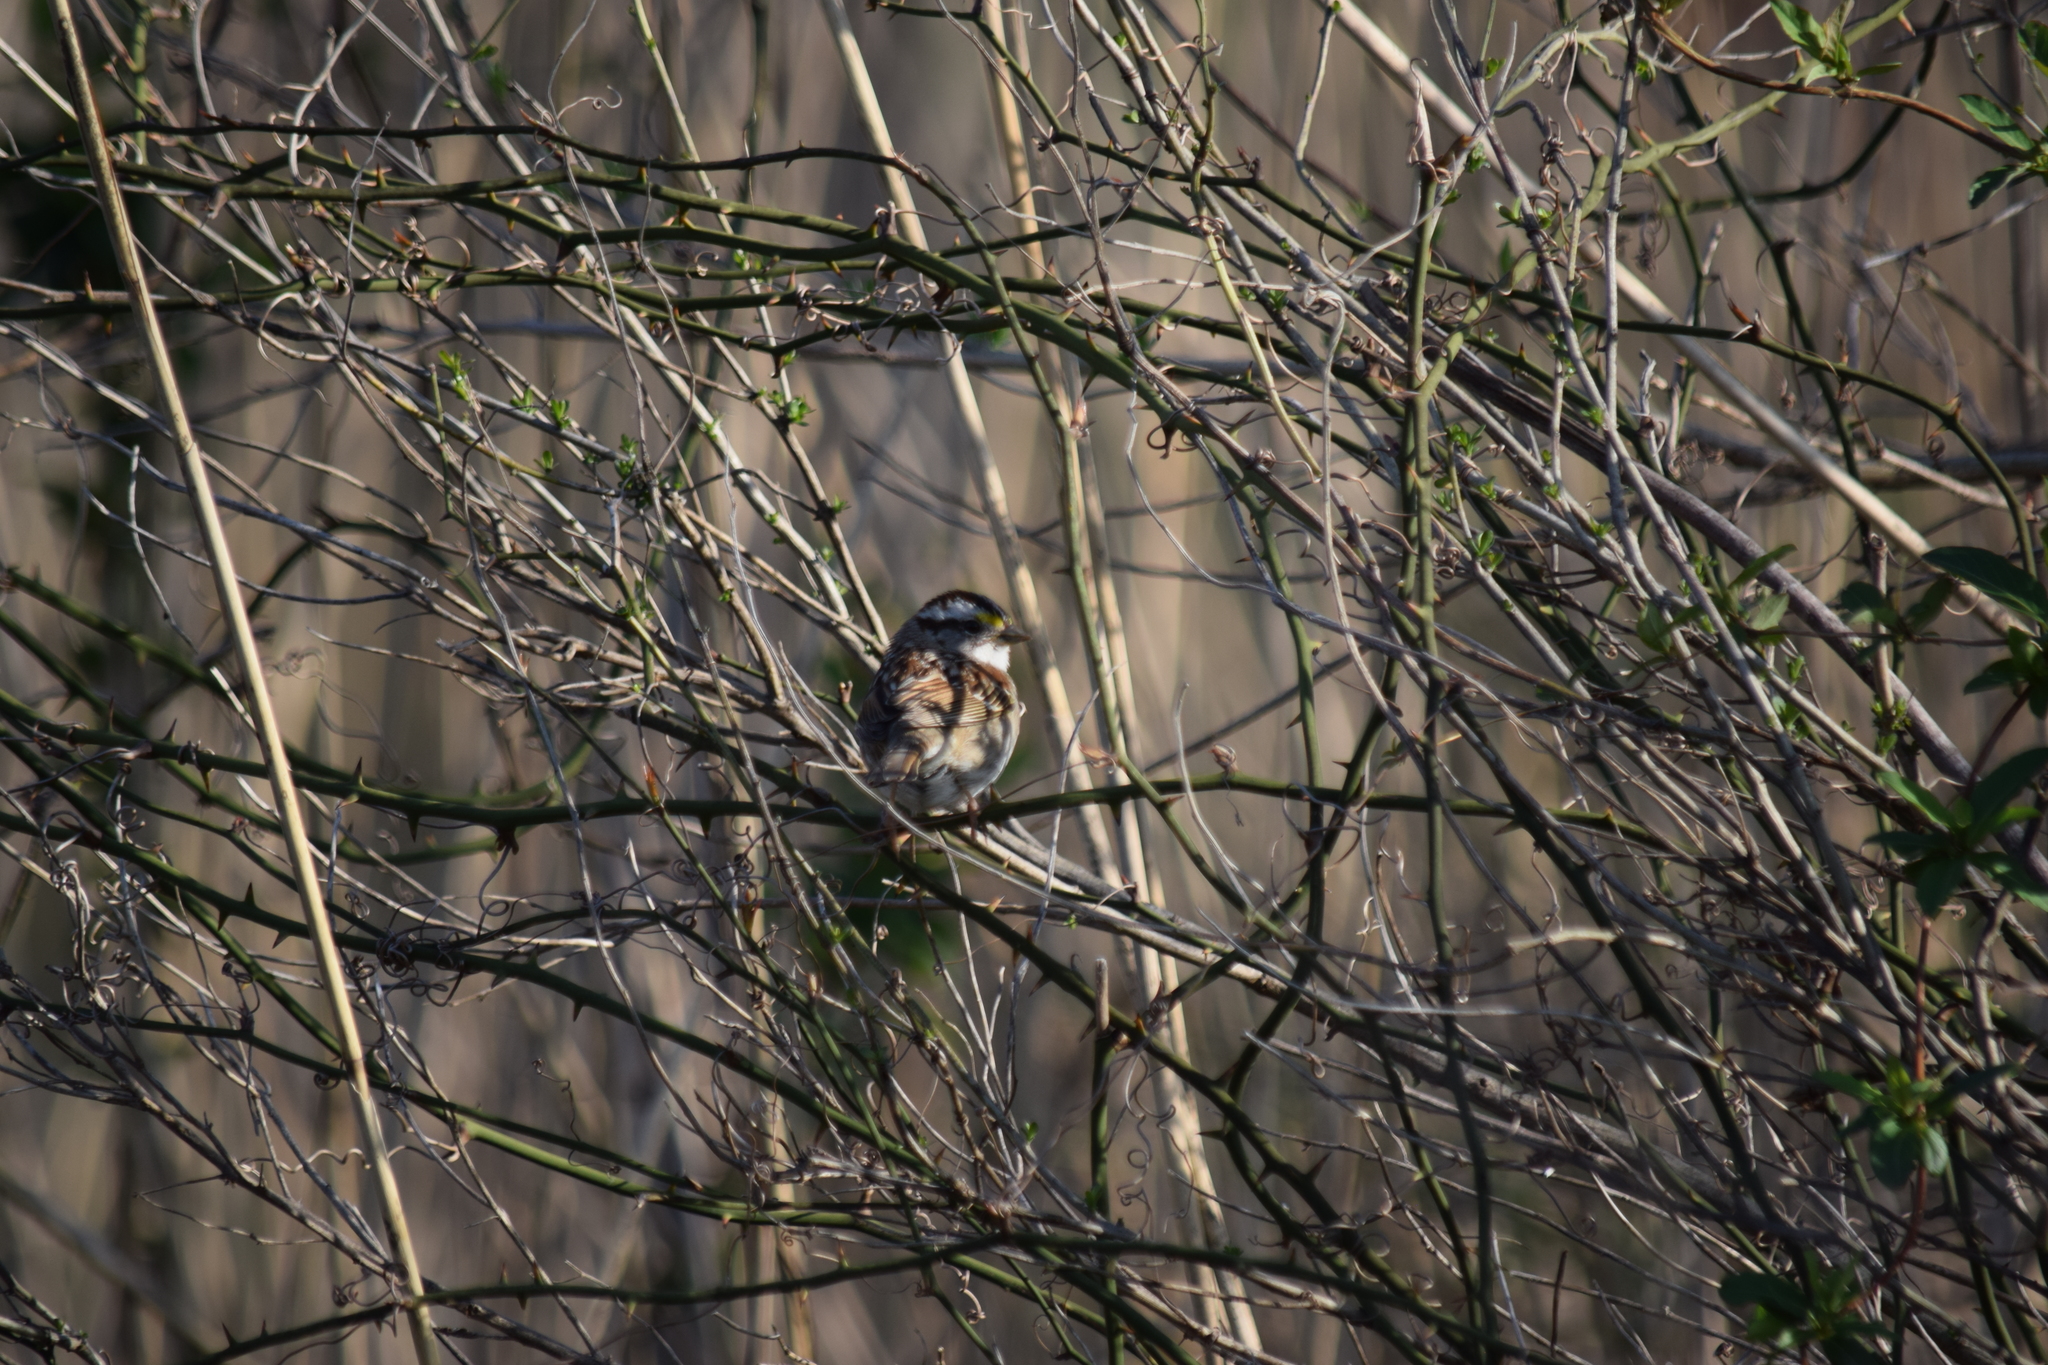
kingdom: Animalia
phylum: Chordata
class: Aves
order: Passeriformes
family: Passerellidae
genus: Zonotrichia
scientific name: Zonotrichia albicollis
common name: White-throated sparrow
